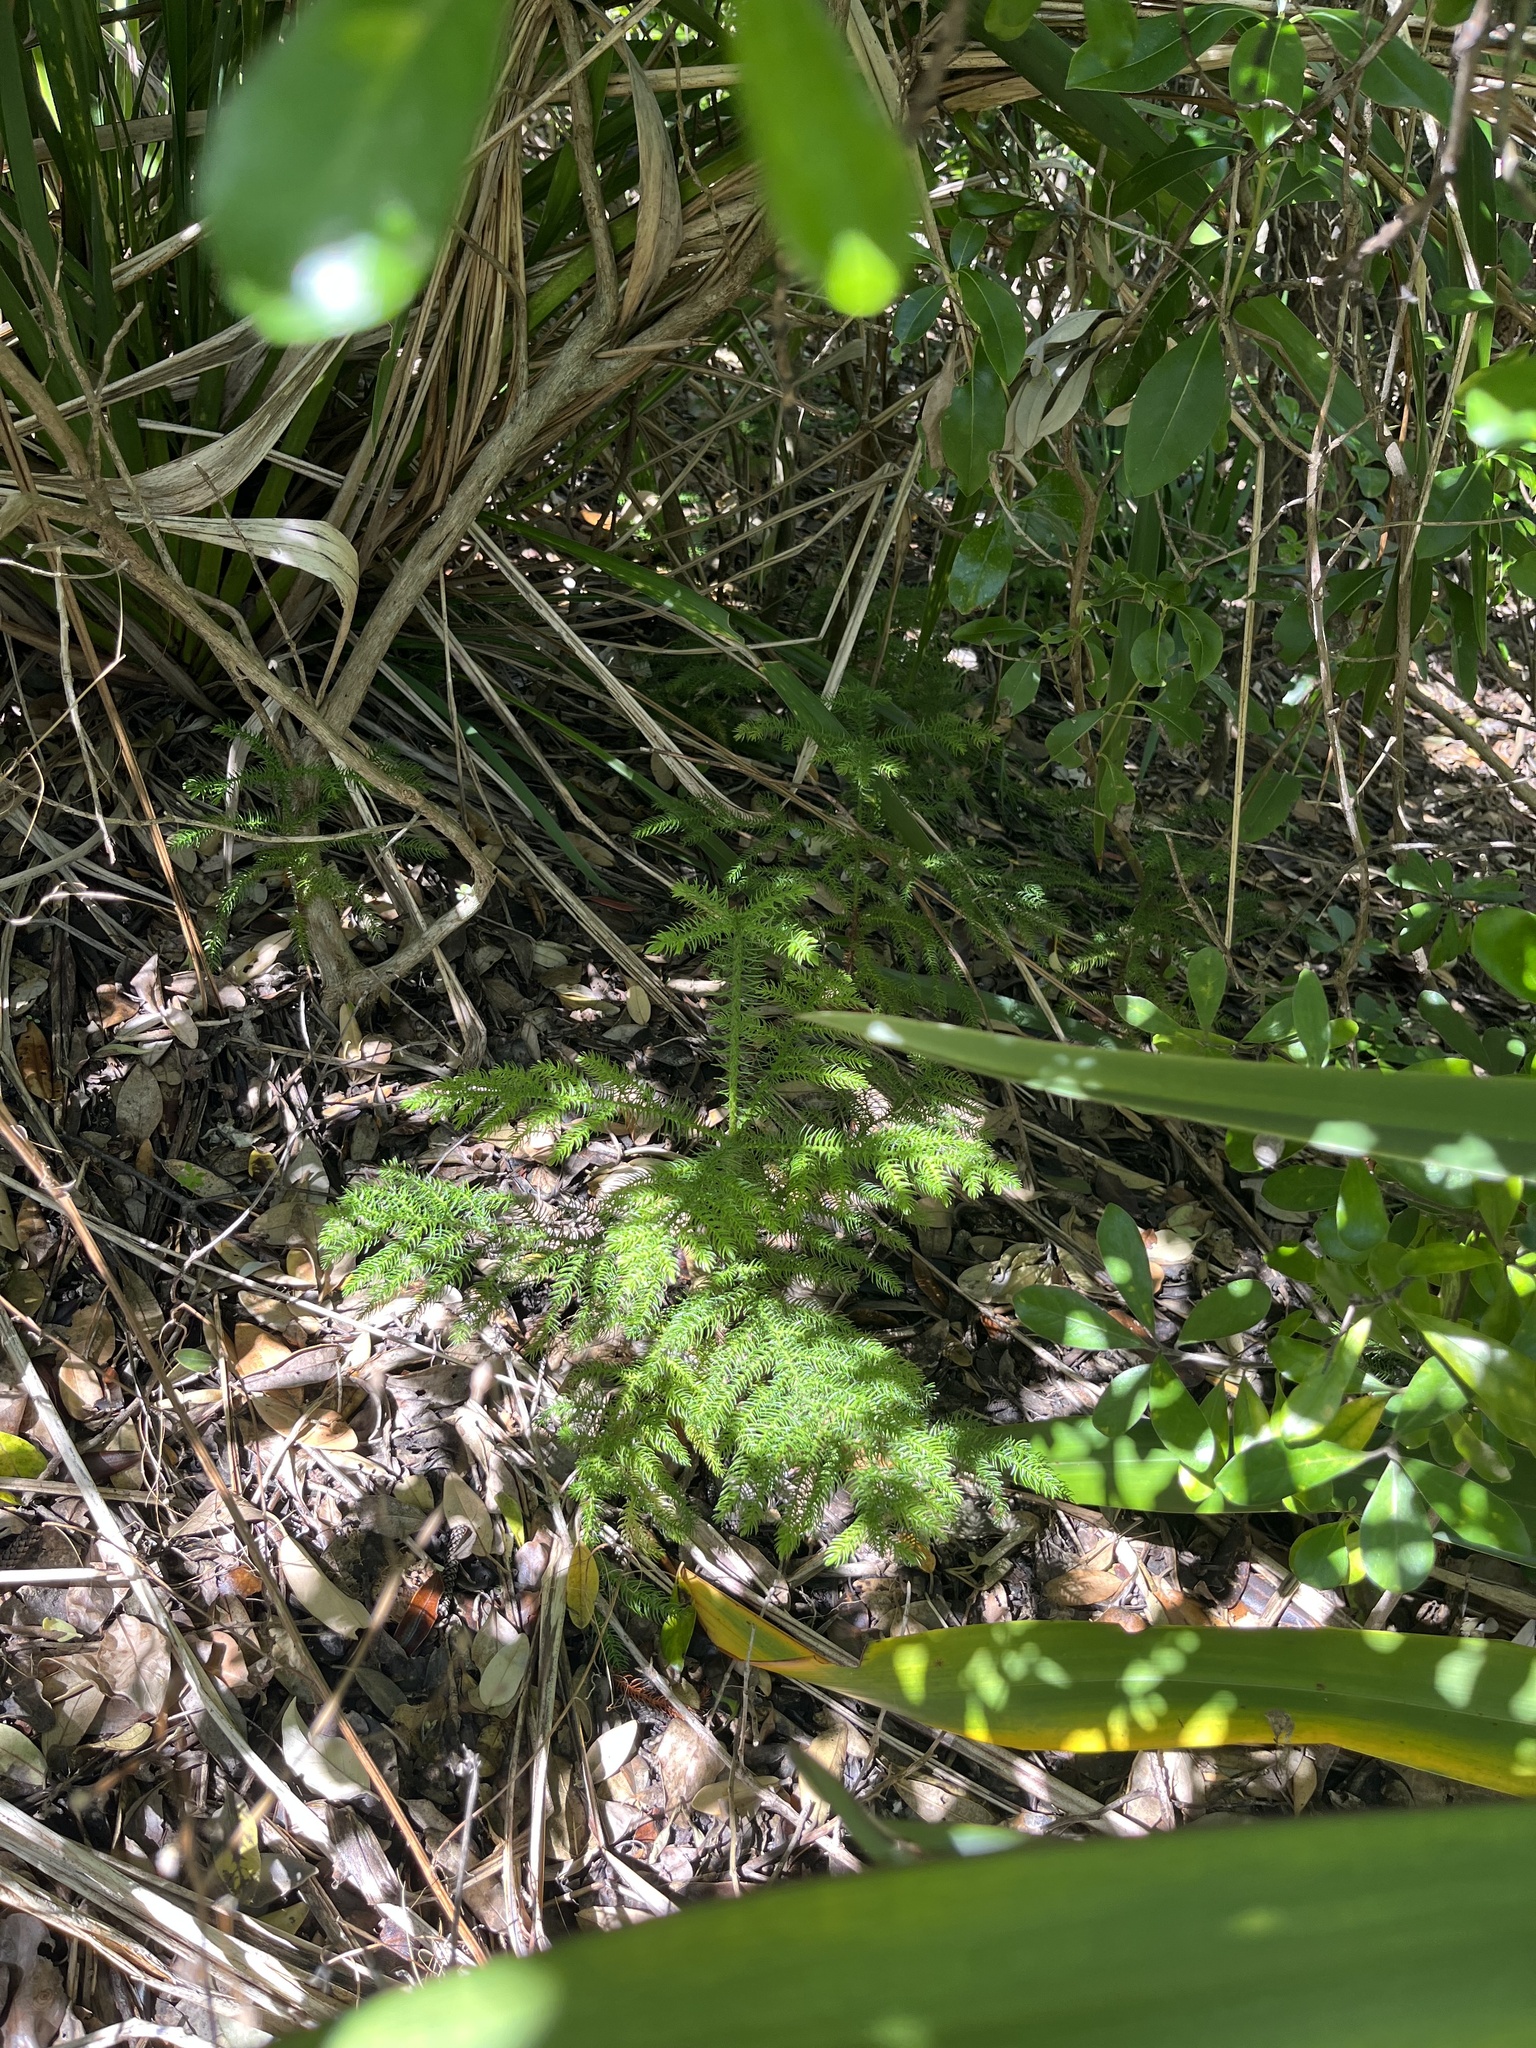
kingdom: Plantae
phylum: Tracheophyta
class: Pinopsida
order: Pinales
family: Araucariaceae
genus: Araucaria
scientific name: Araucaria heterophylla
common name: Norfolk island pine
